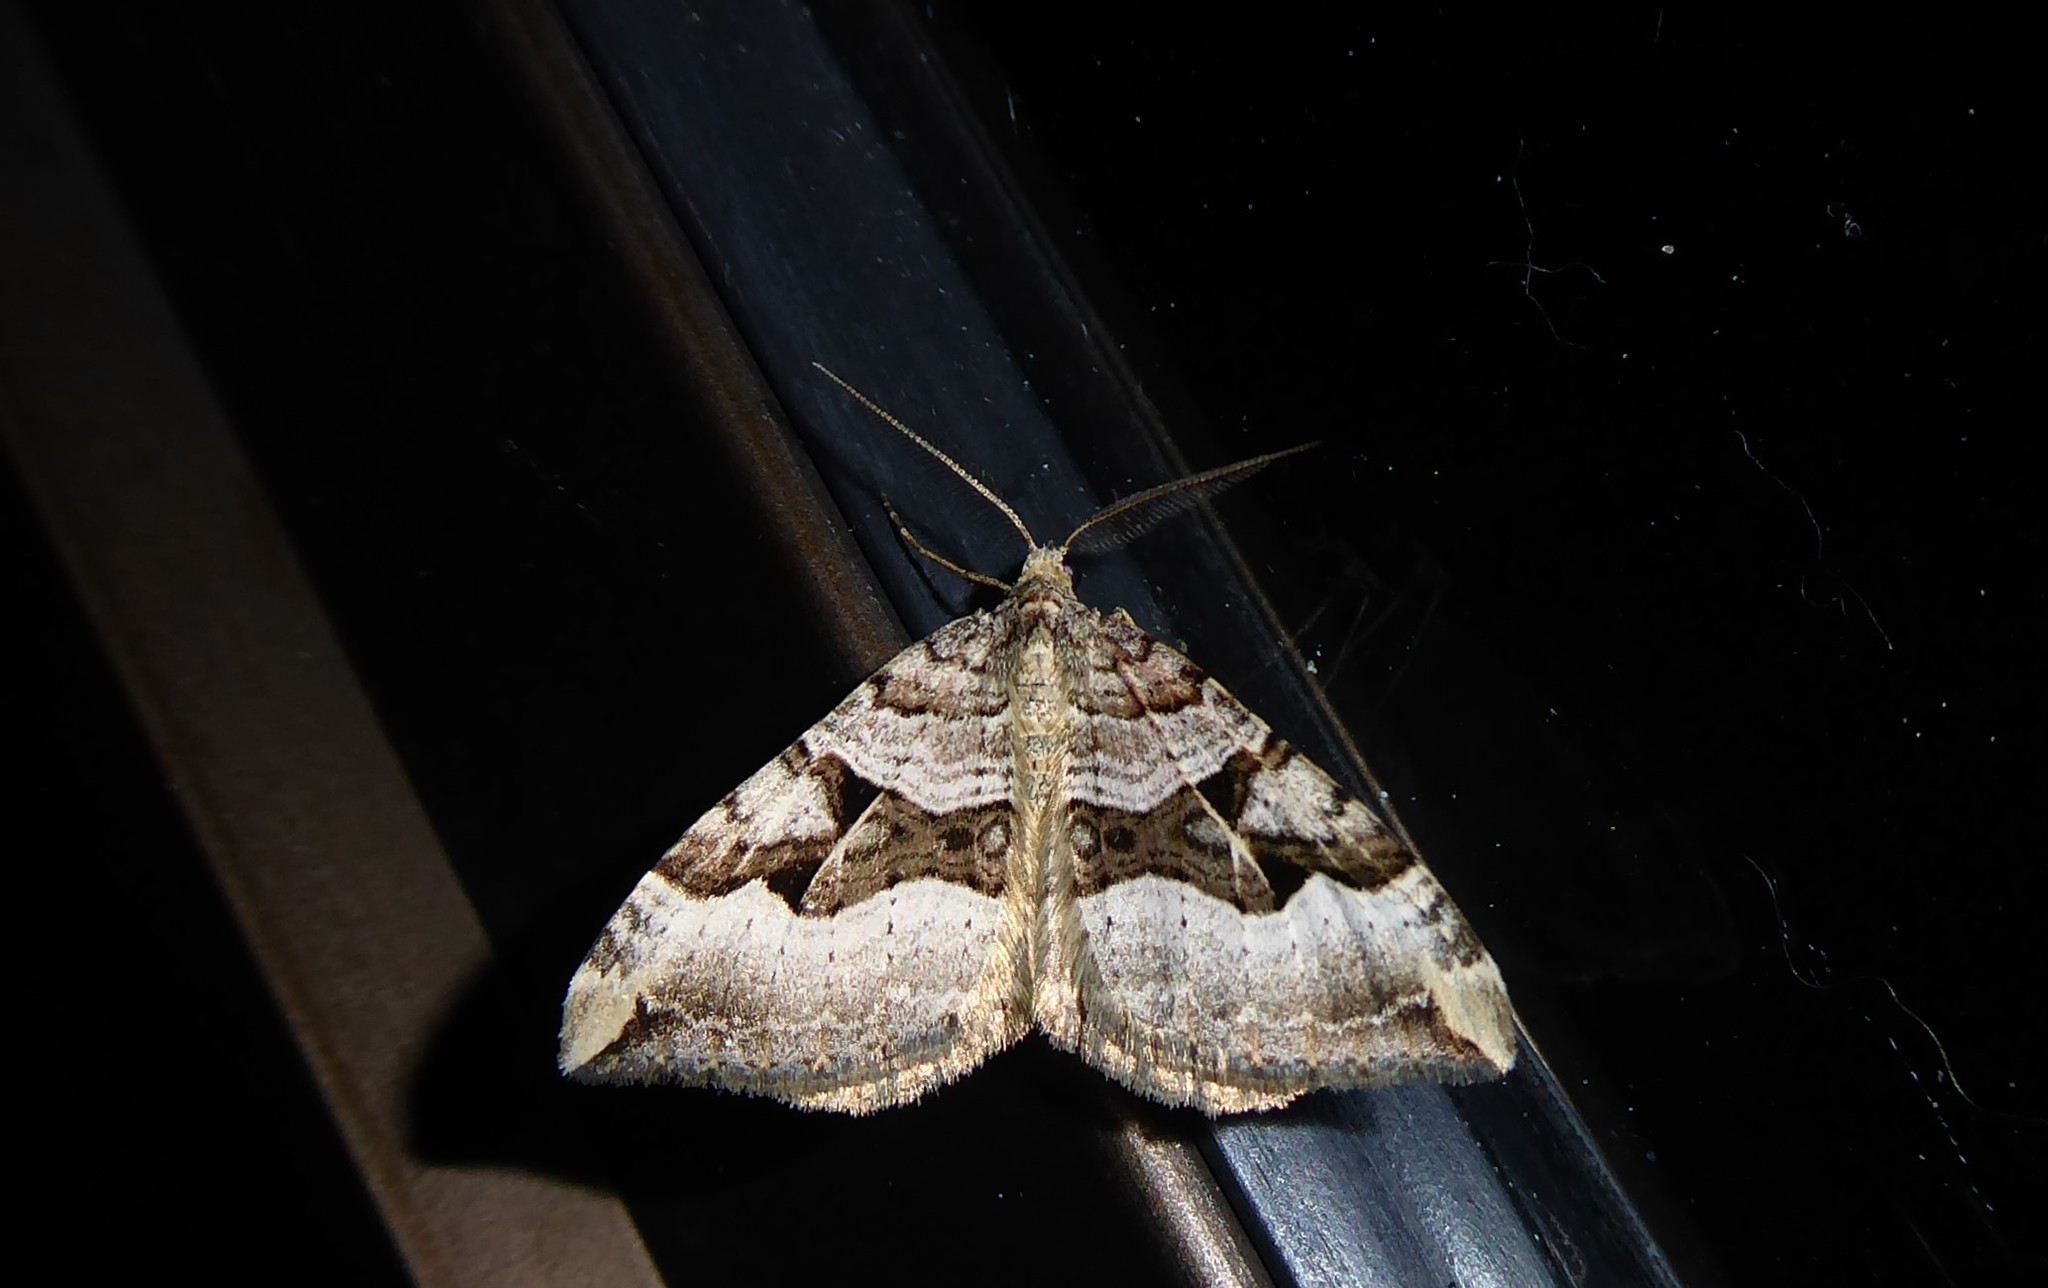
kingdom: Animalia
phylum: Arthropoda
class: Insecta
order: Lepidoptera
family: Geometridae
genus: Xanthorhoe
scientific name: Xanthorhoe semifissata
